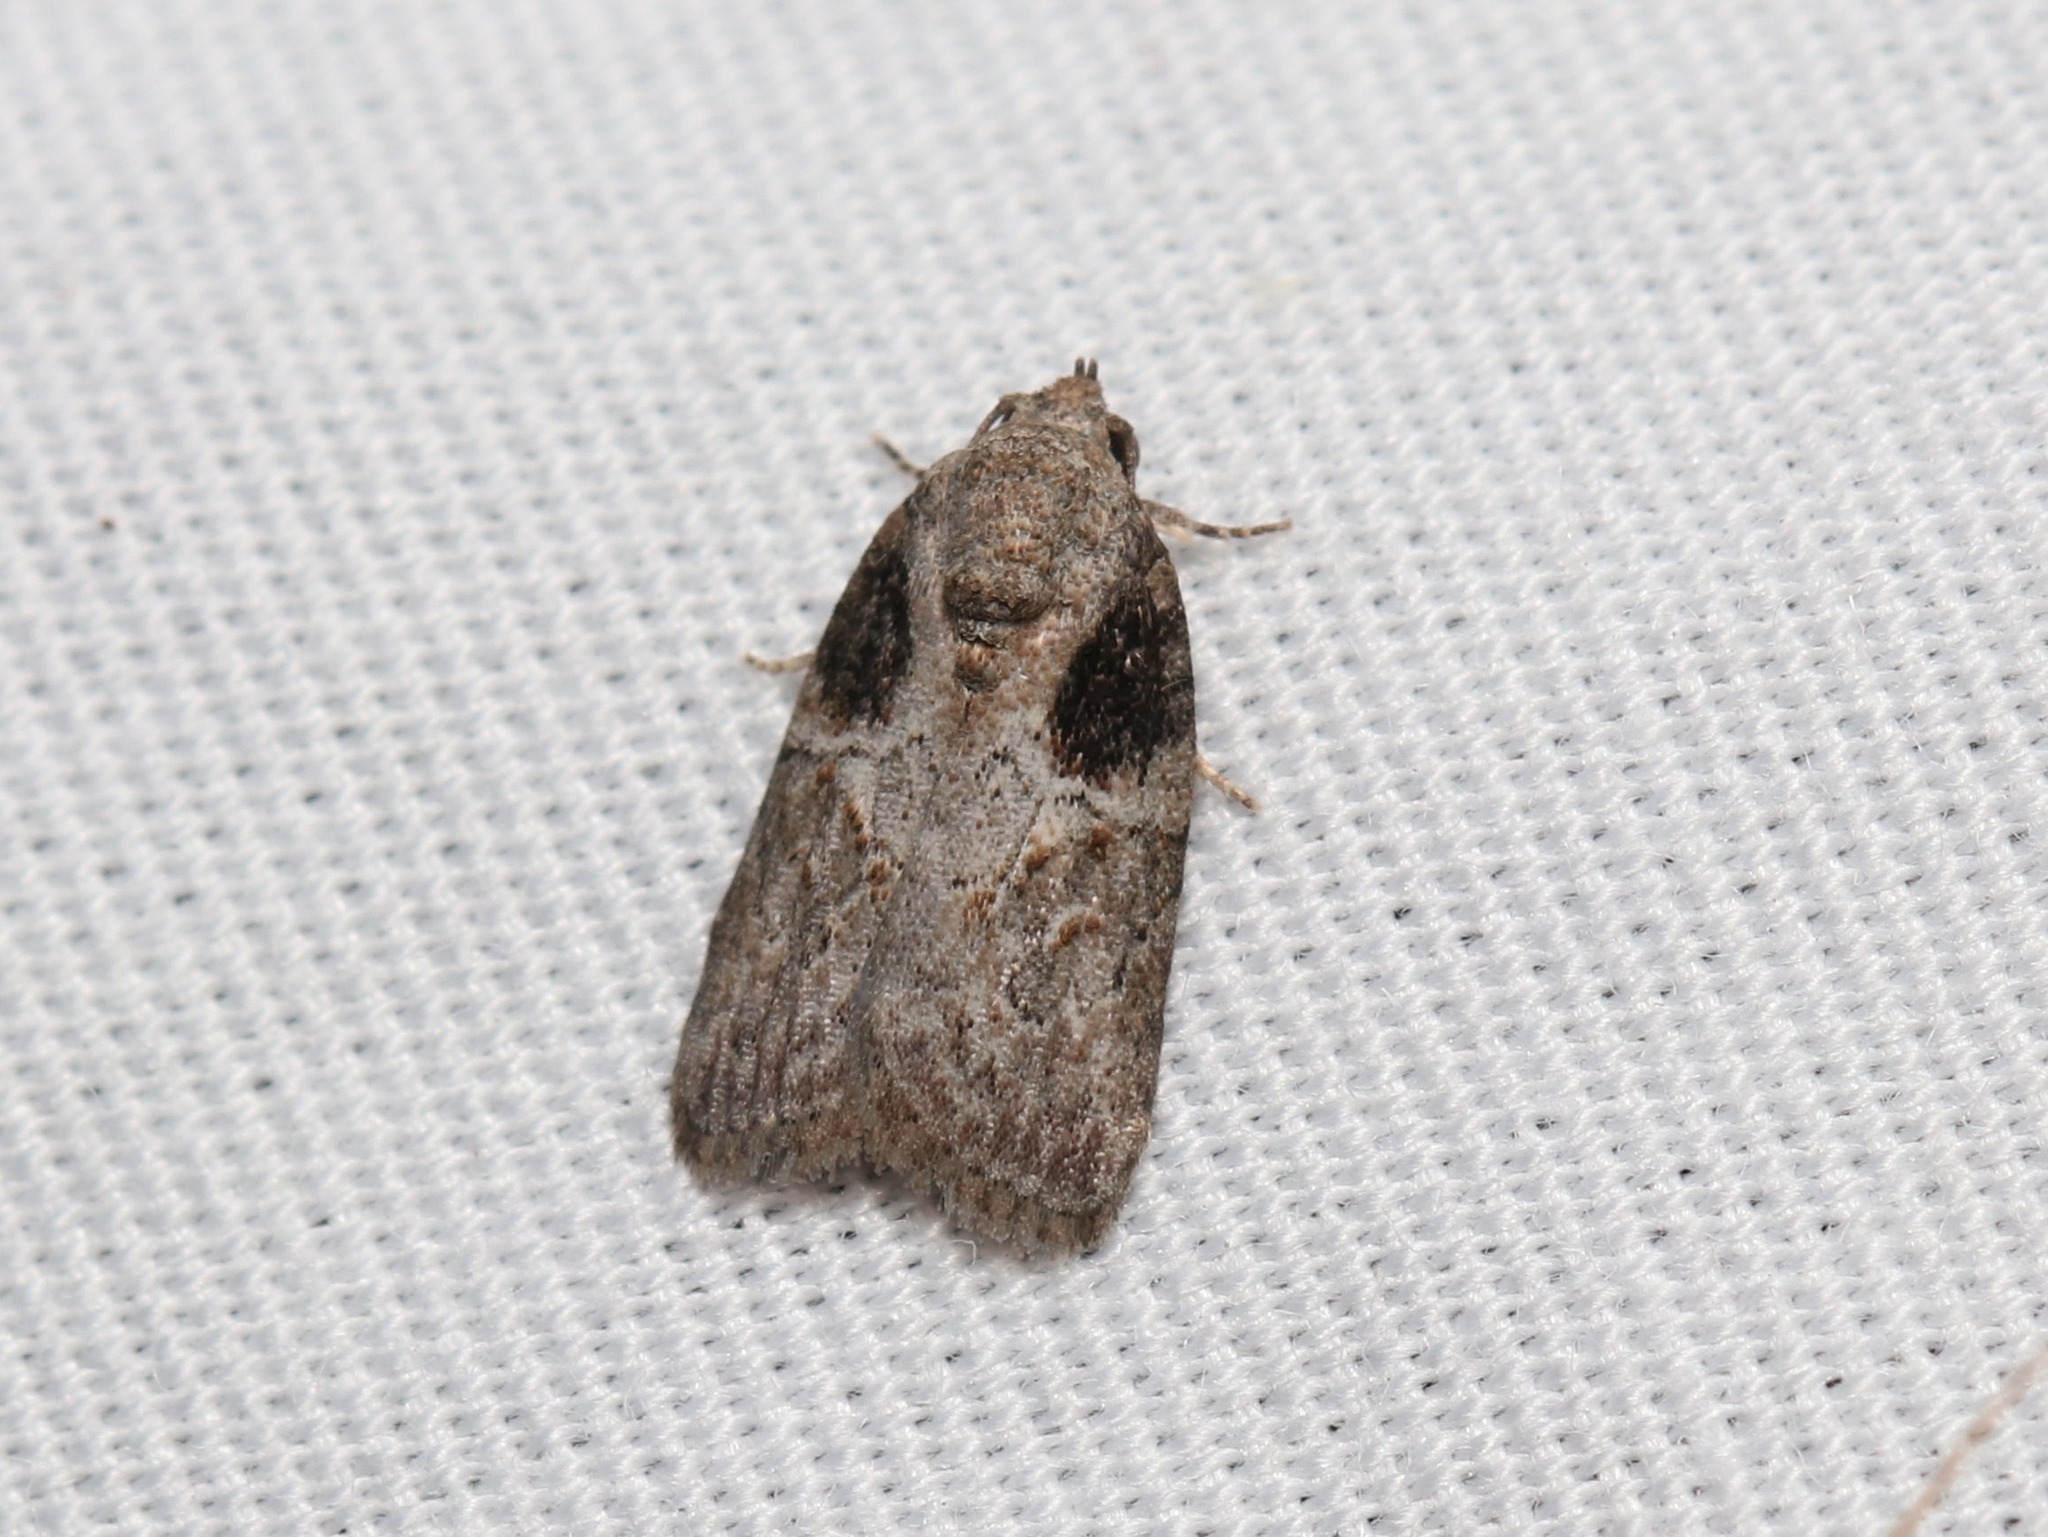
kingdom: Animalia
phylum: Arthropoda
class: Insecta
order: Lepidoptera
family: Nolidae
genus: Garella
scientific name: Garella nilotica
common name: Black-olive caterpillar moth
